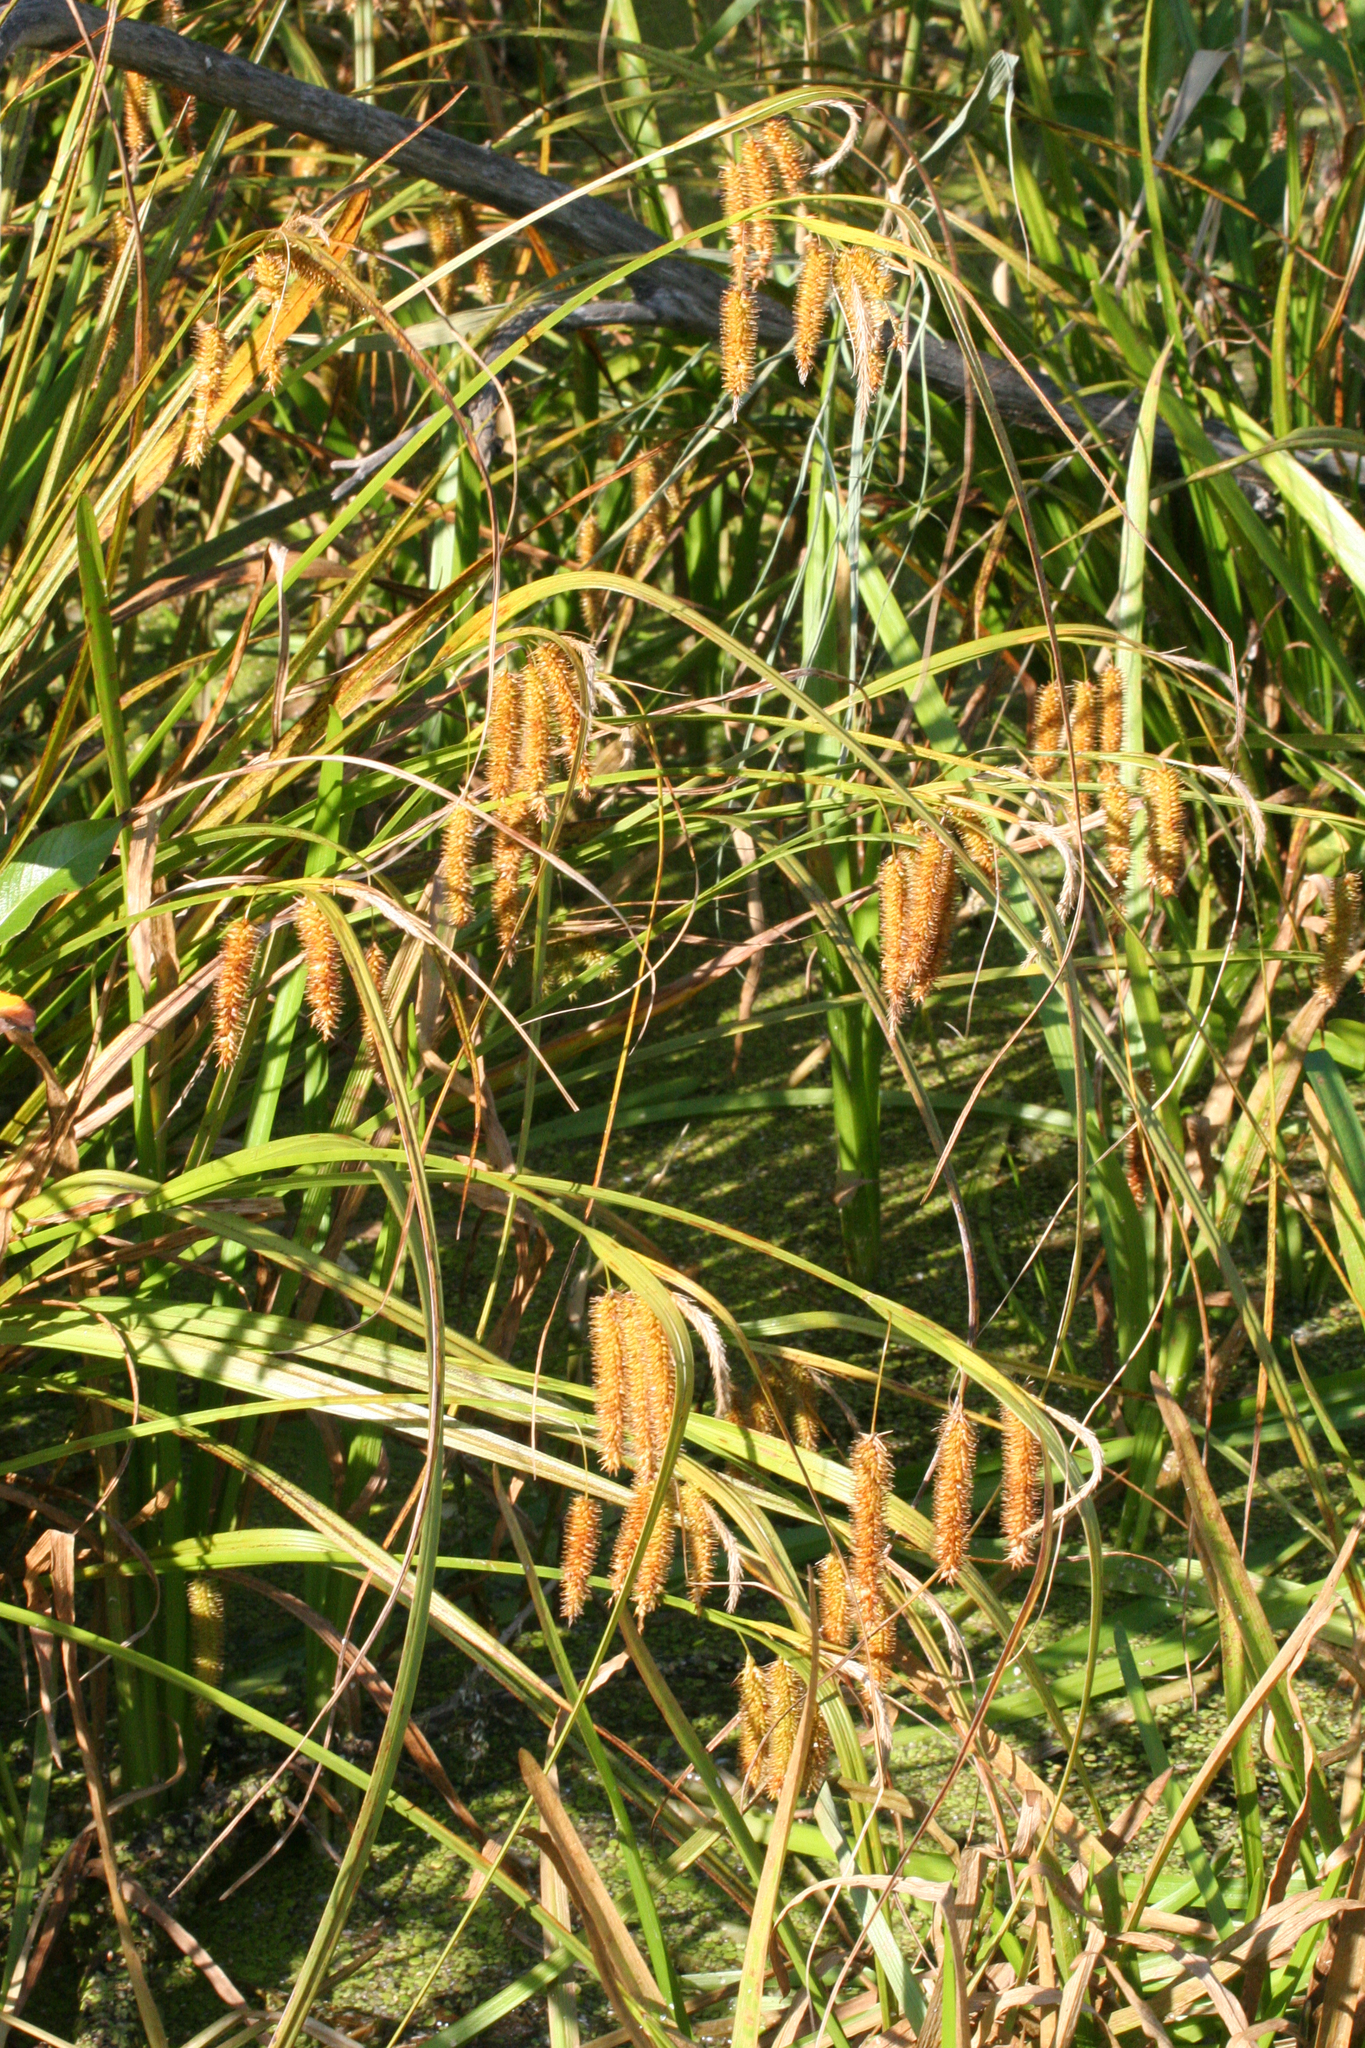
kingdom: Plantae
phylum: Tracheophyta
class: Liliopsida
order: Poales
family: Cyperaceae
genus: Carex
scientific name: Carex pseudocyperus
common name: Cyperus sedge
